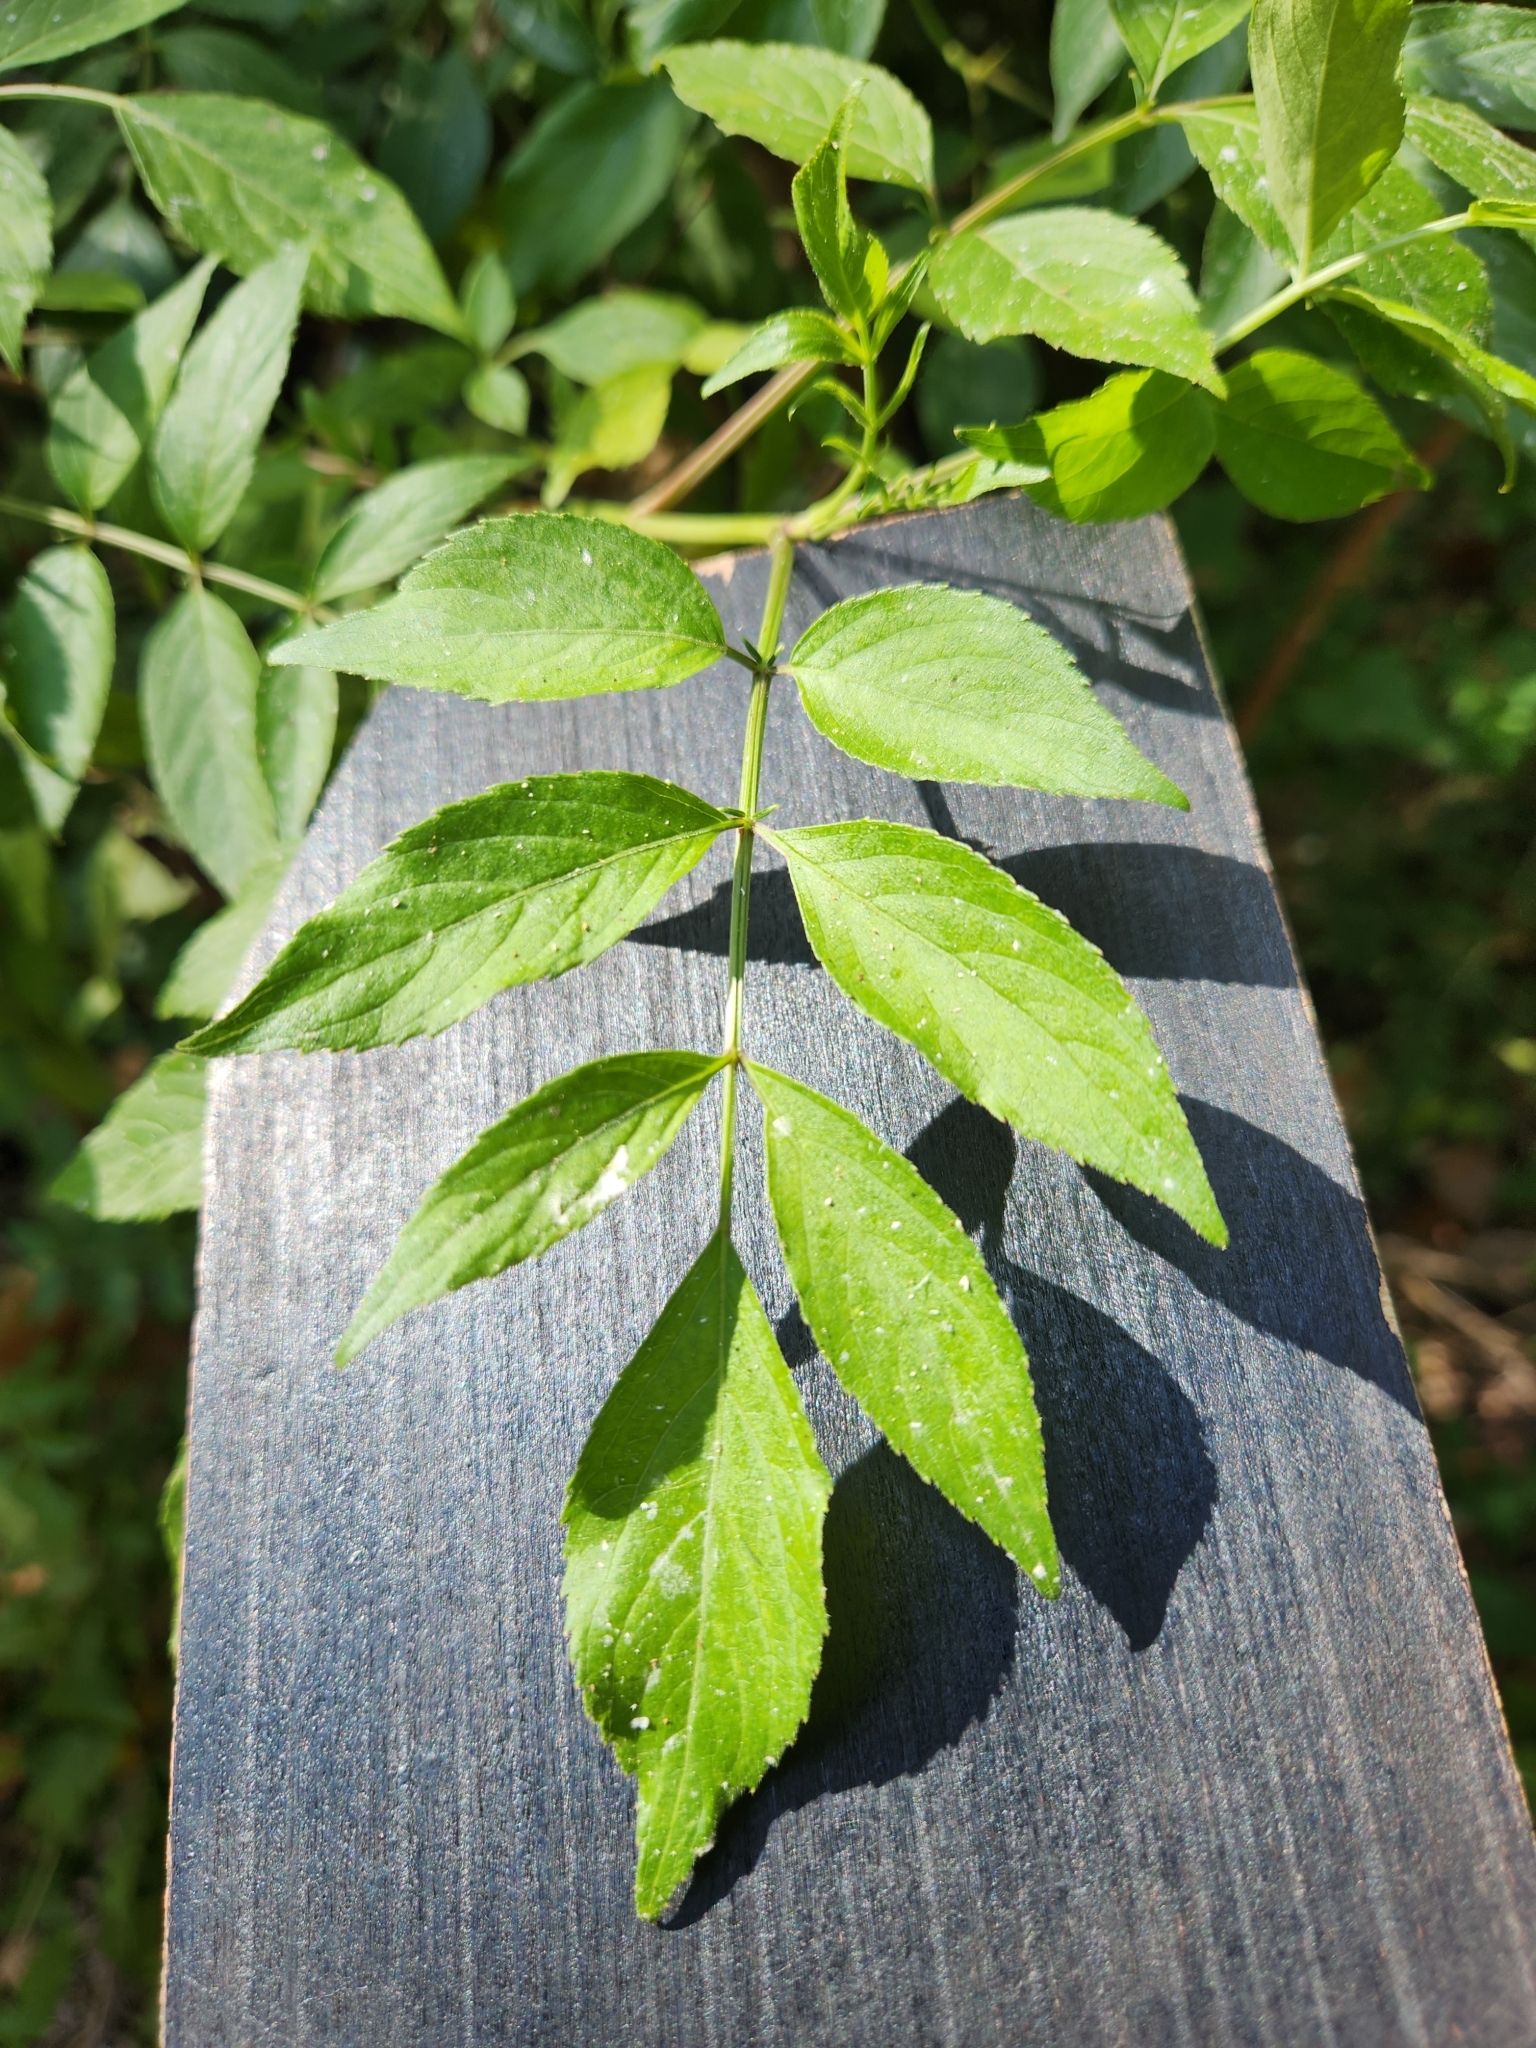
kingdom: Plantae
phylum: Tracheophyta
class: Magnoliopsida
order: Dipsacales
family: Viburnaceae
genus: Sambucus
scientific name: Sambucus canadensis
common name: American elder
